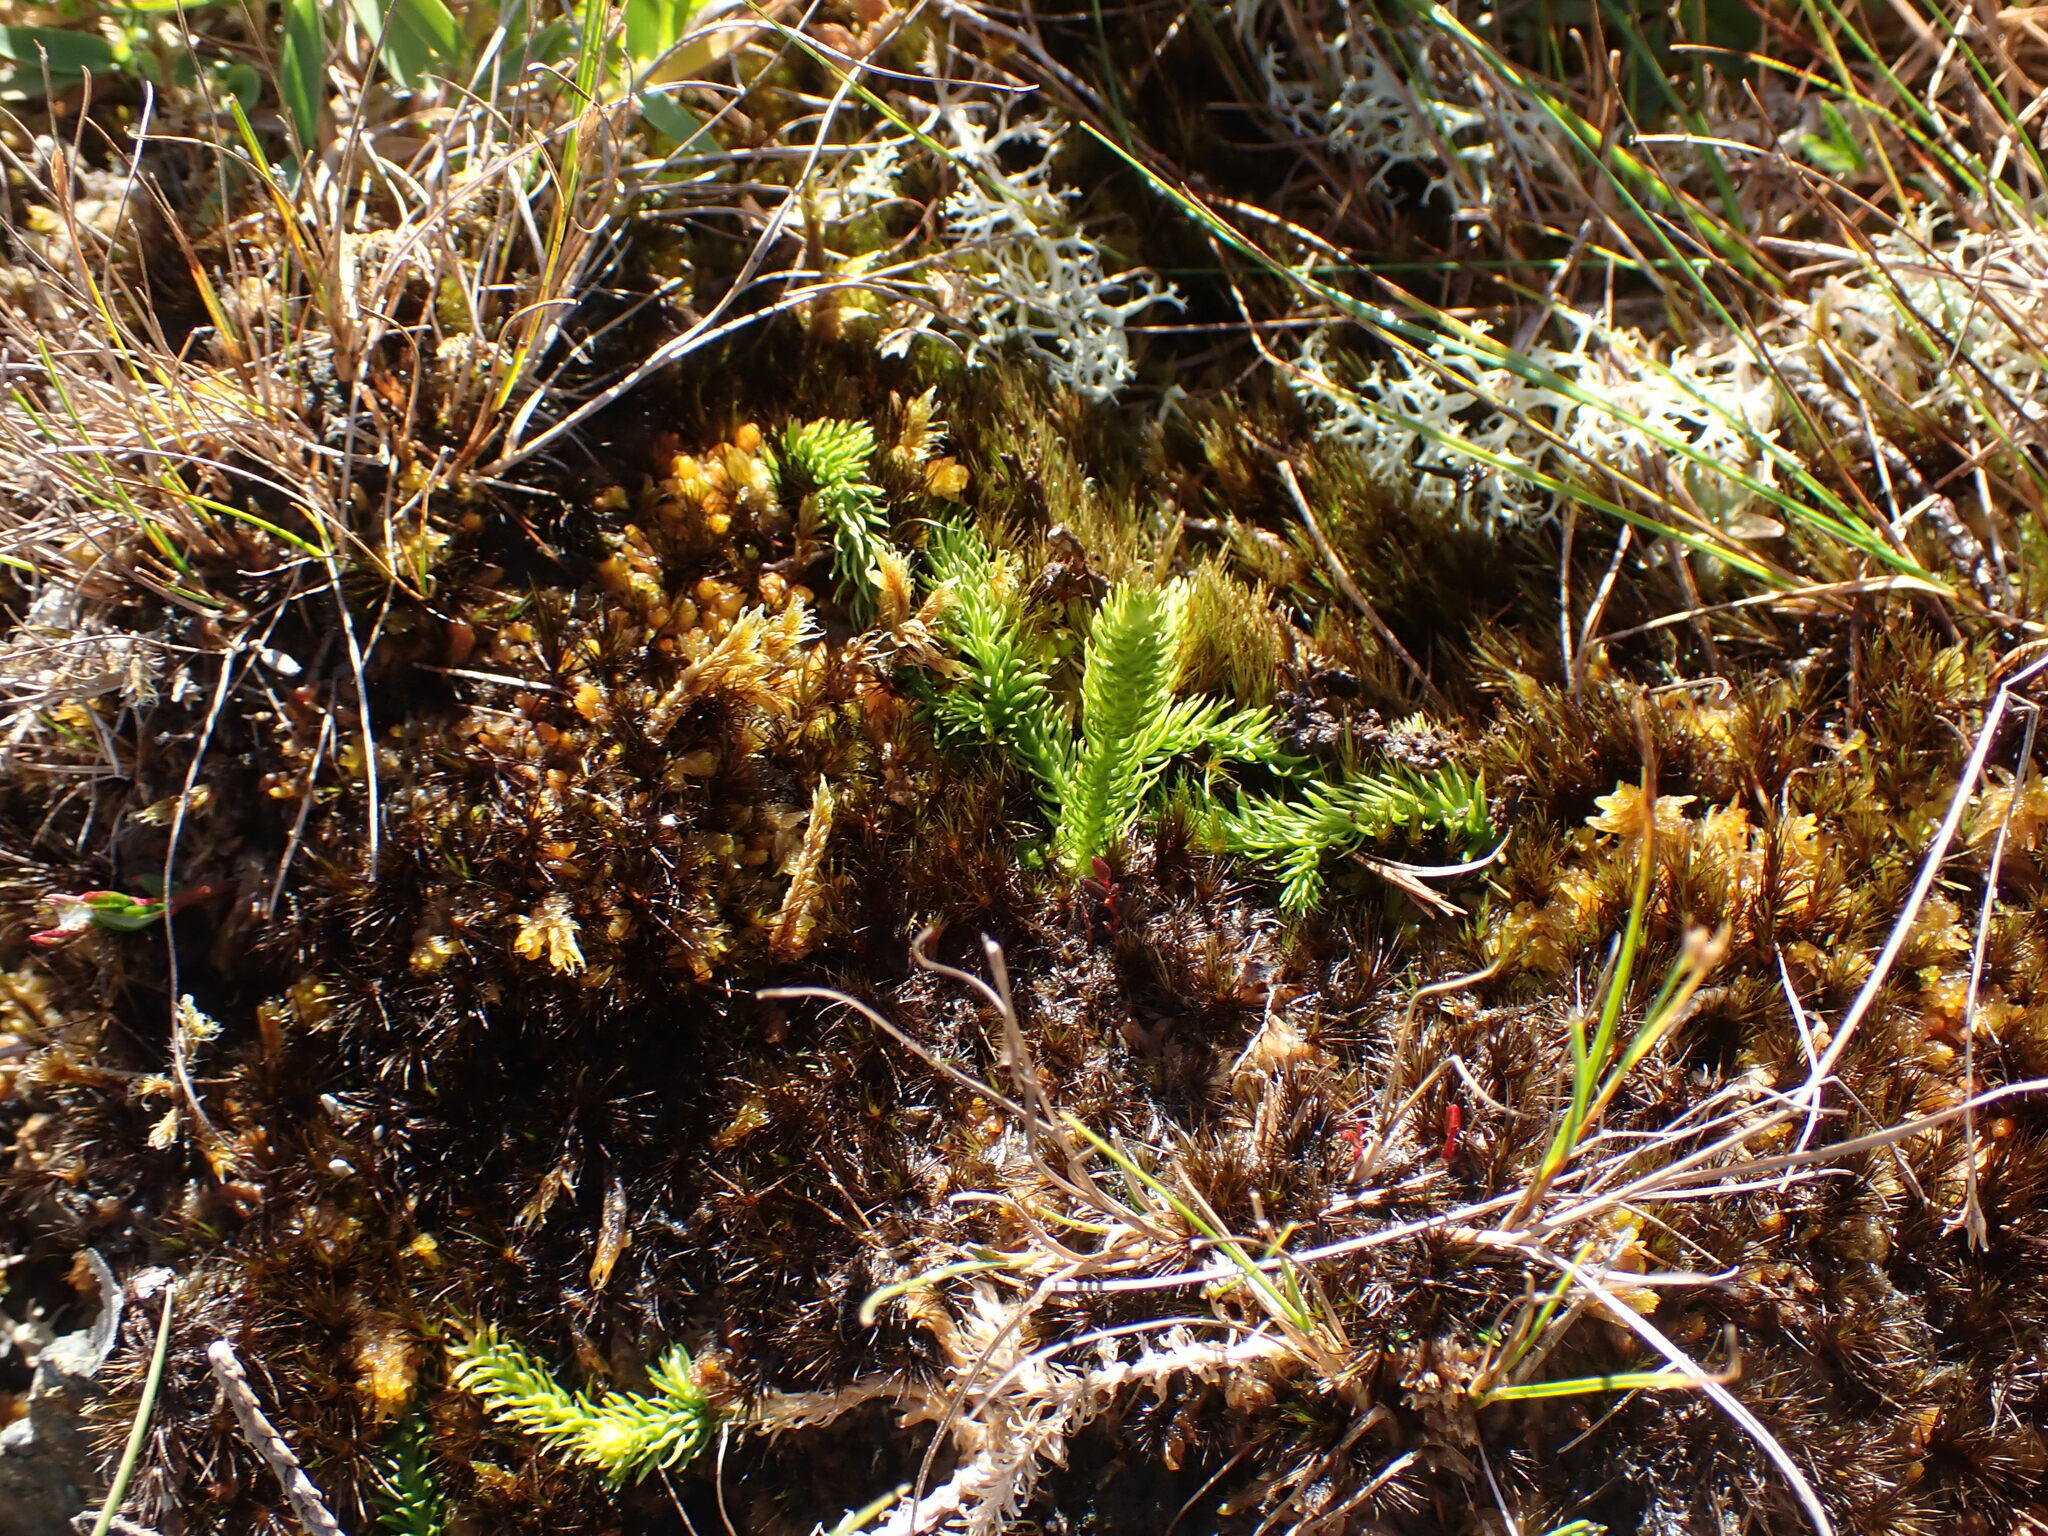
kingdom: Plantae
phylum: Tracheophyta
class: Lycopodiopsida
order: Lycopodiales
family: Lycopodiaceae
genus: Lycopodiella
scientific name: Lycopodiella inundata
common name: Marsh clubmoss
